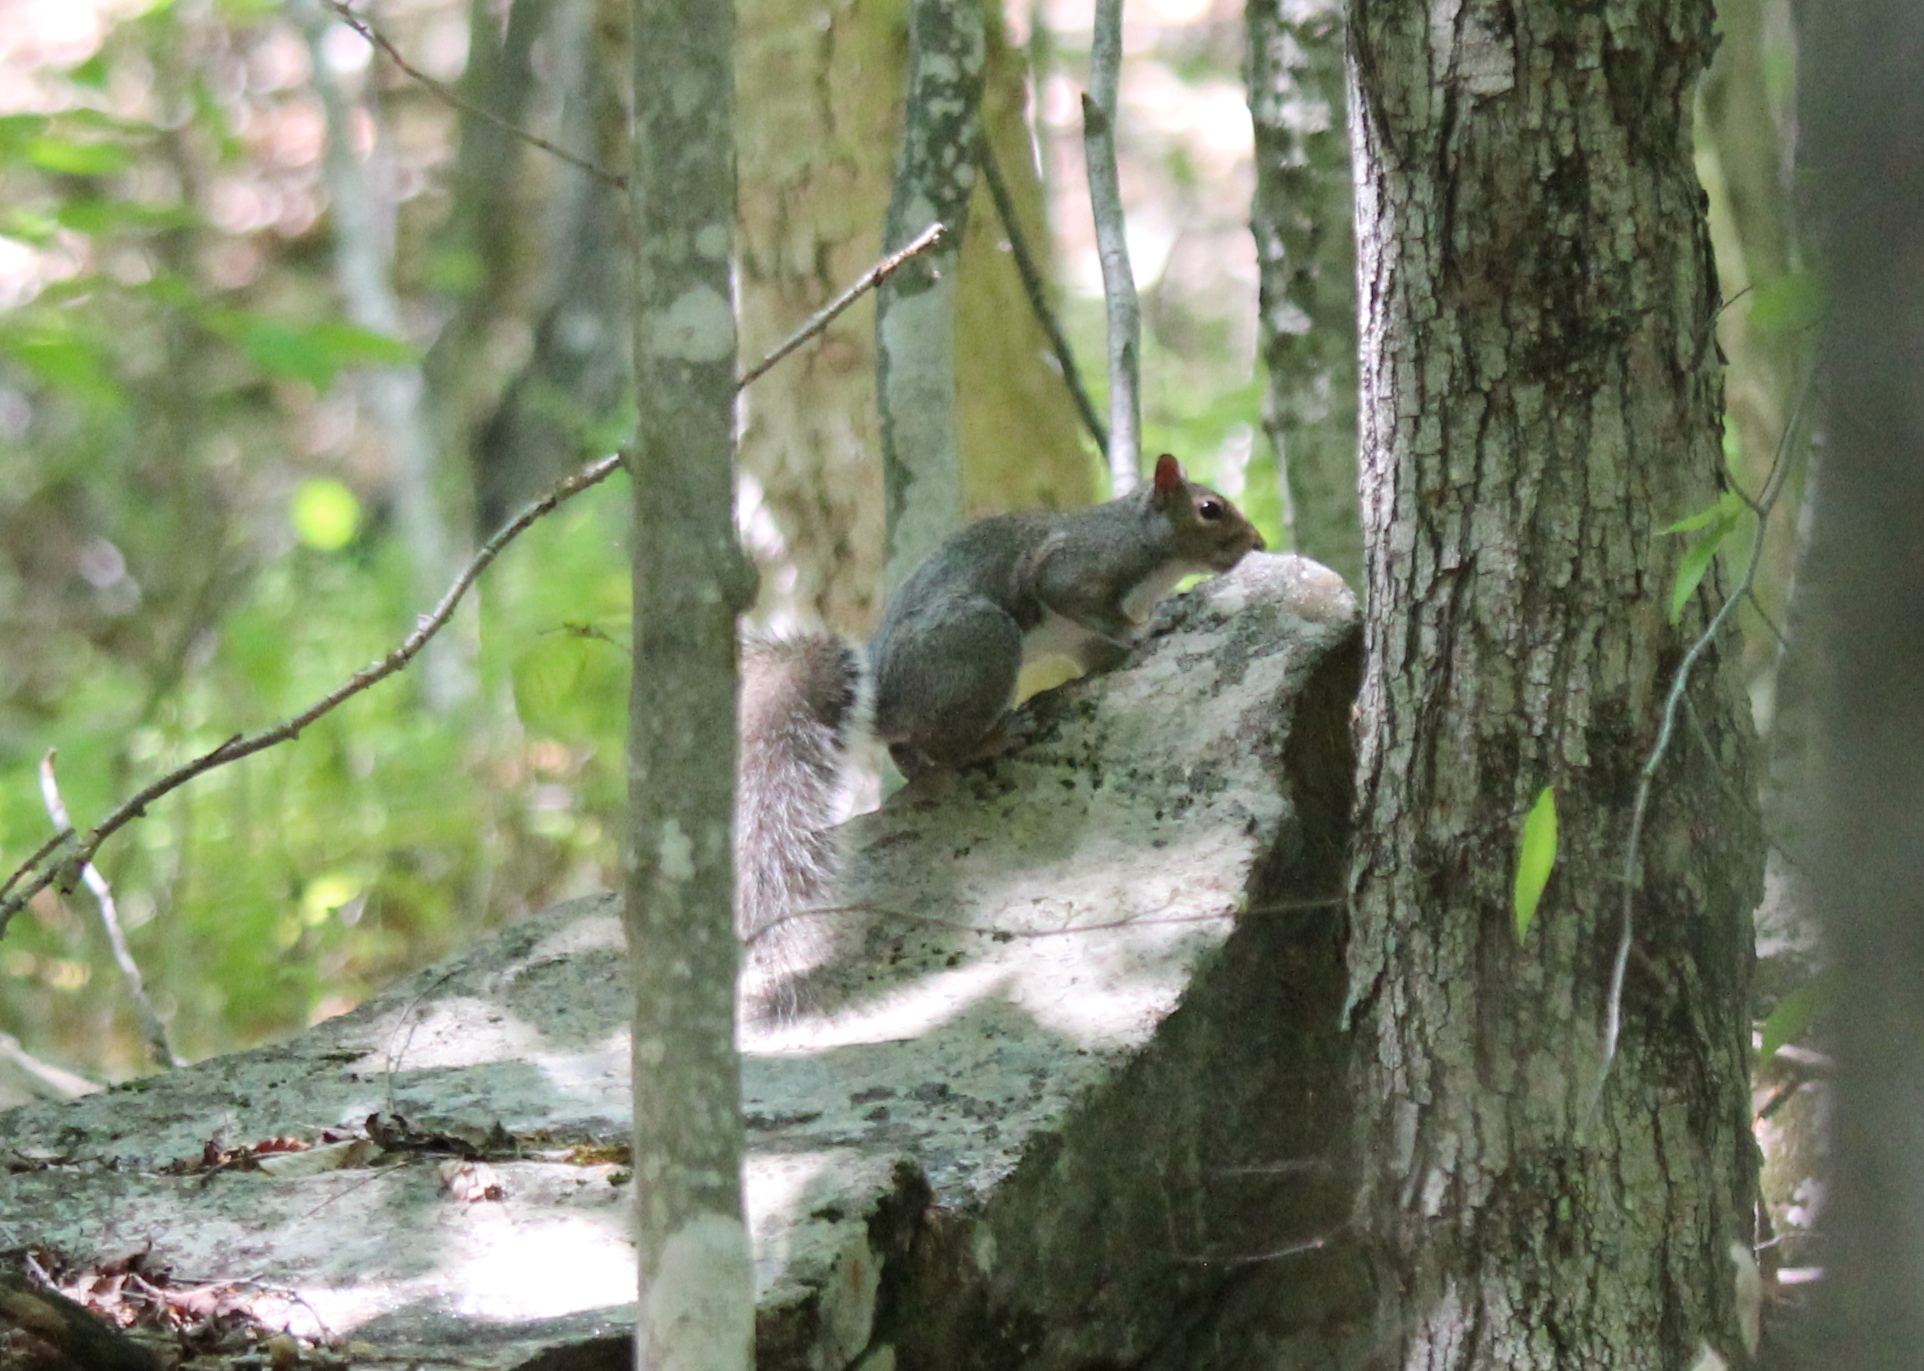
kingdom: Animalia
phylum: Chordata
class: Mammalia
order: Rodentia
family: Sciuridae
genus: Sciurus
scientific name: Sciurus carolinensis
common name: Eastern gray squirrel
